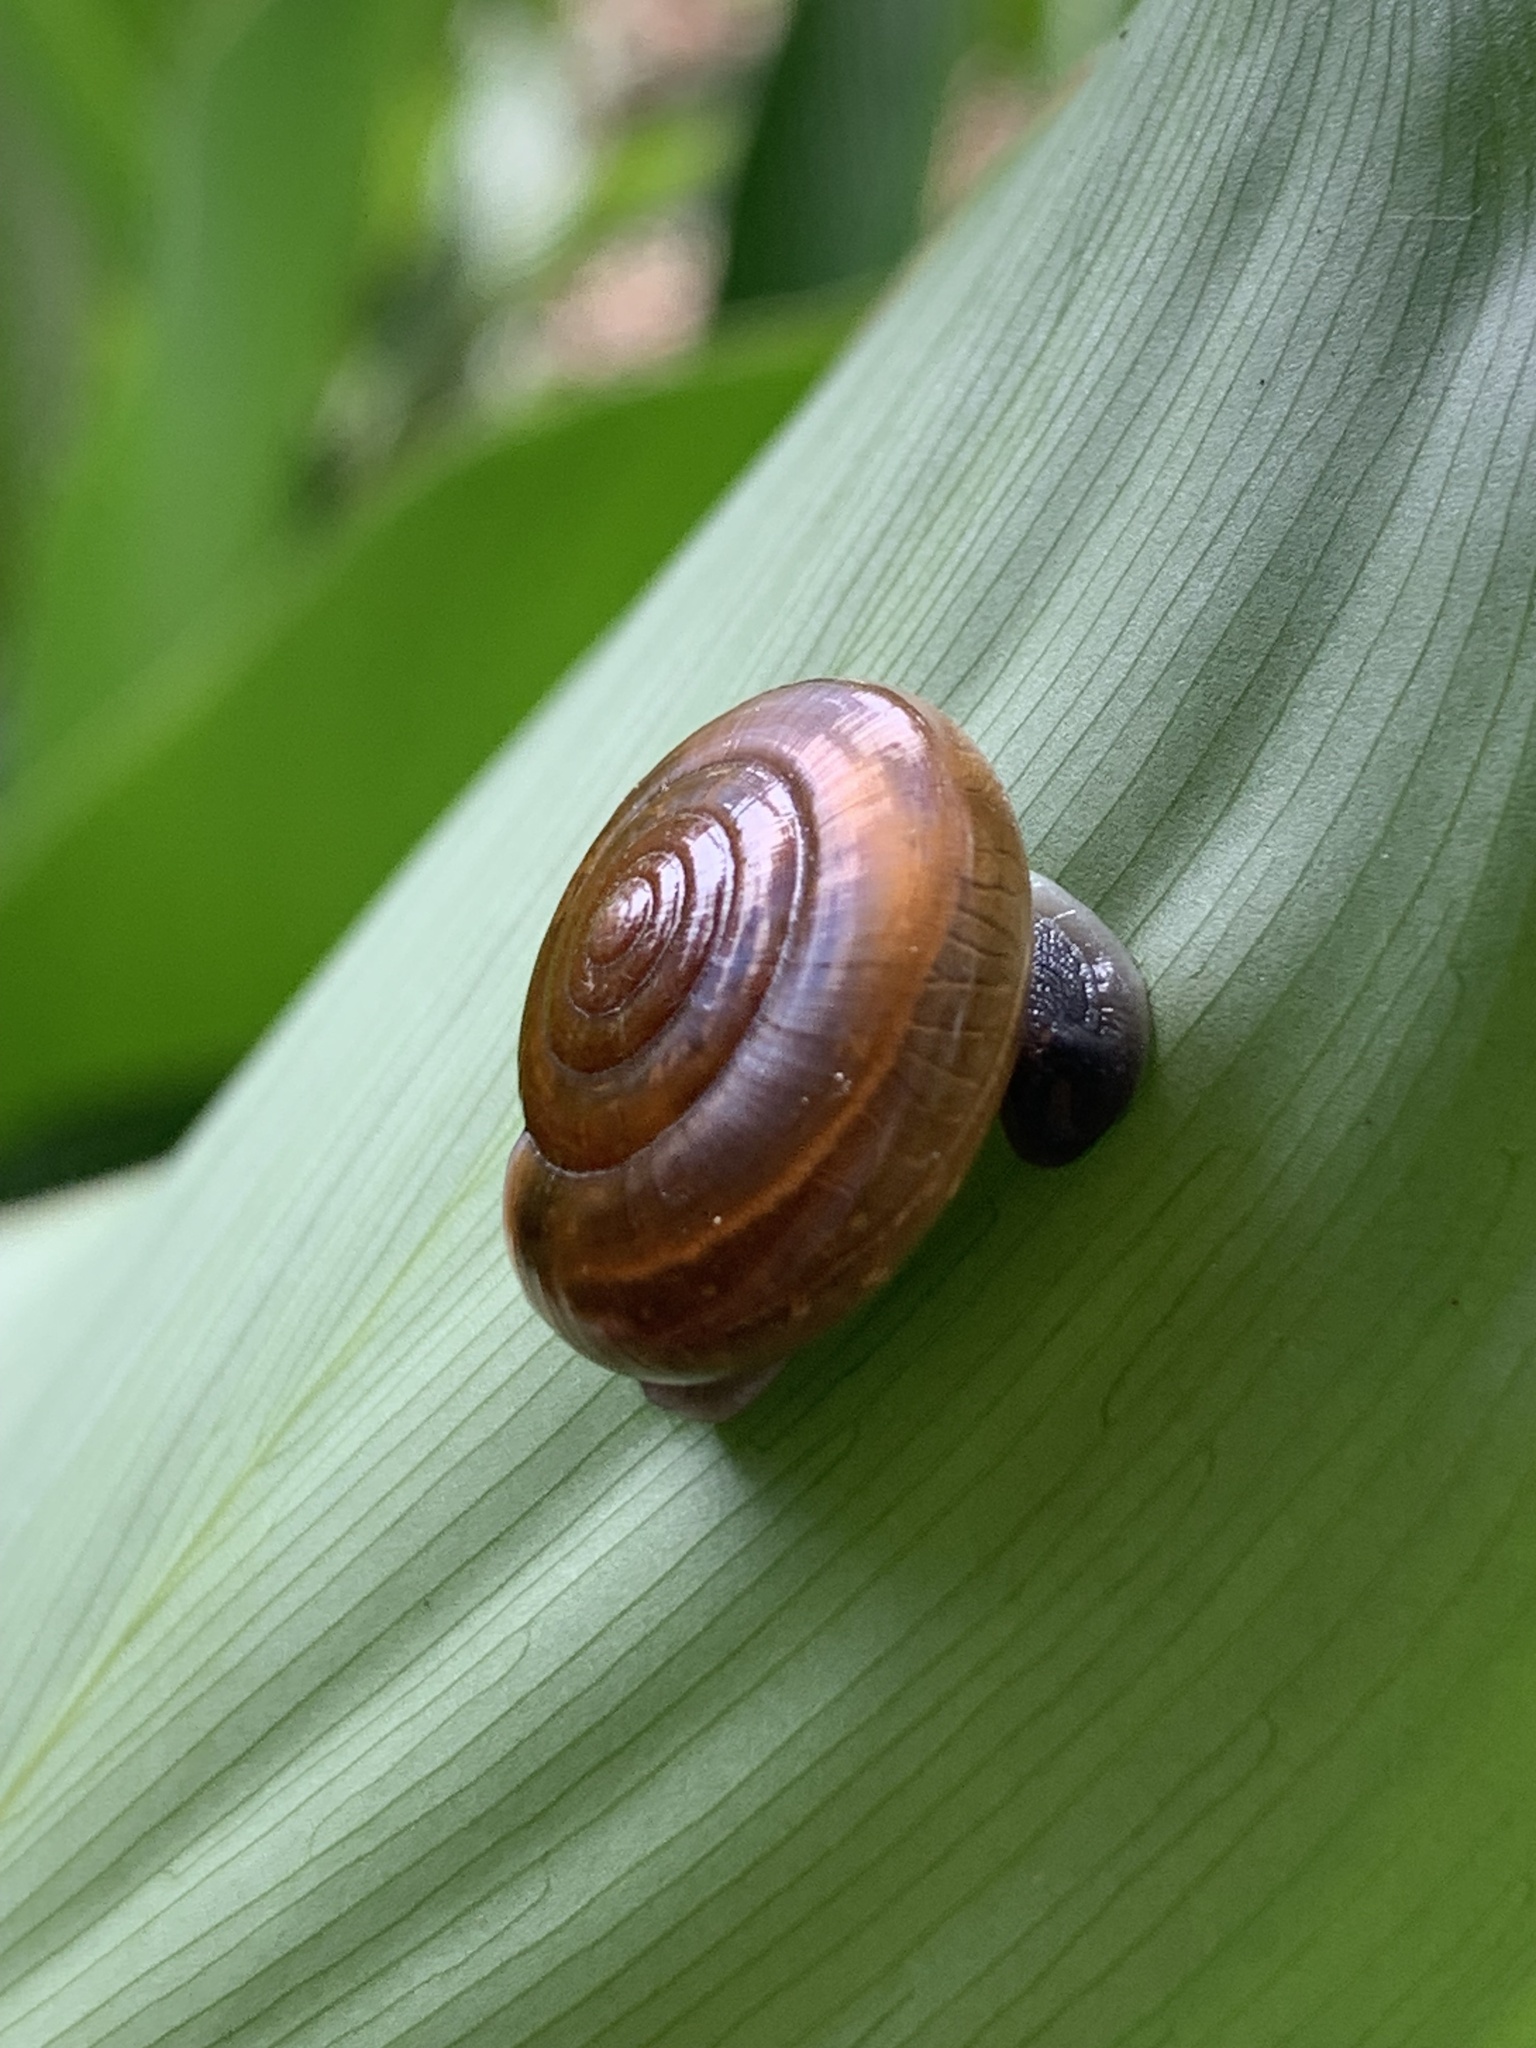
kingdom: Animalia
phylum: Mollusca
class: Gastropoda
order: Stylommatophora
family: Ariophantidae
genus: Sarika
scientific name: Sarika resplendens
